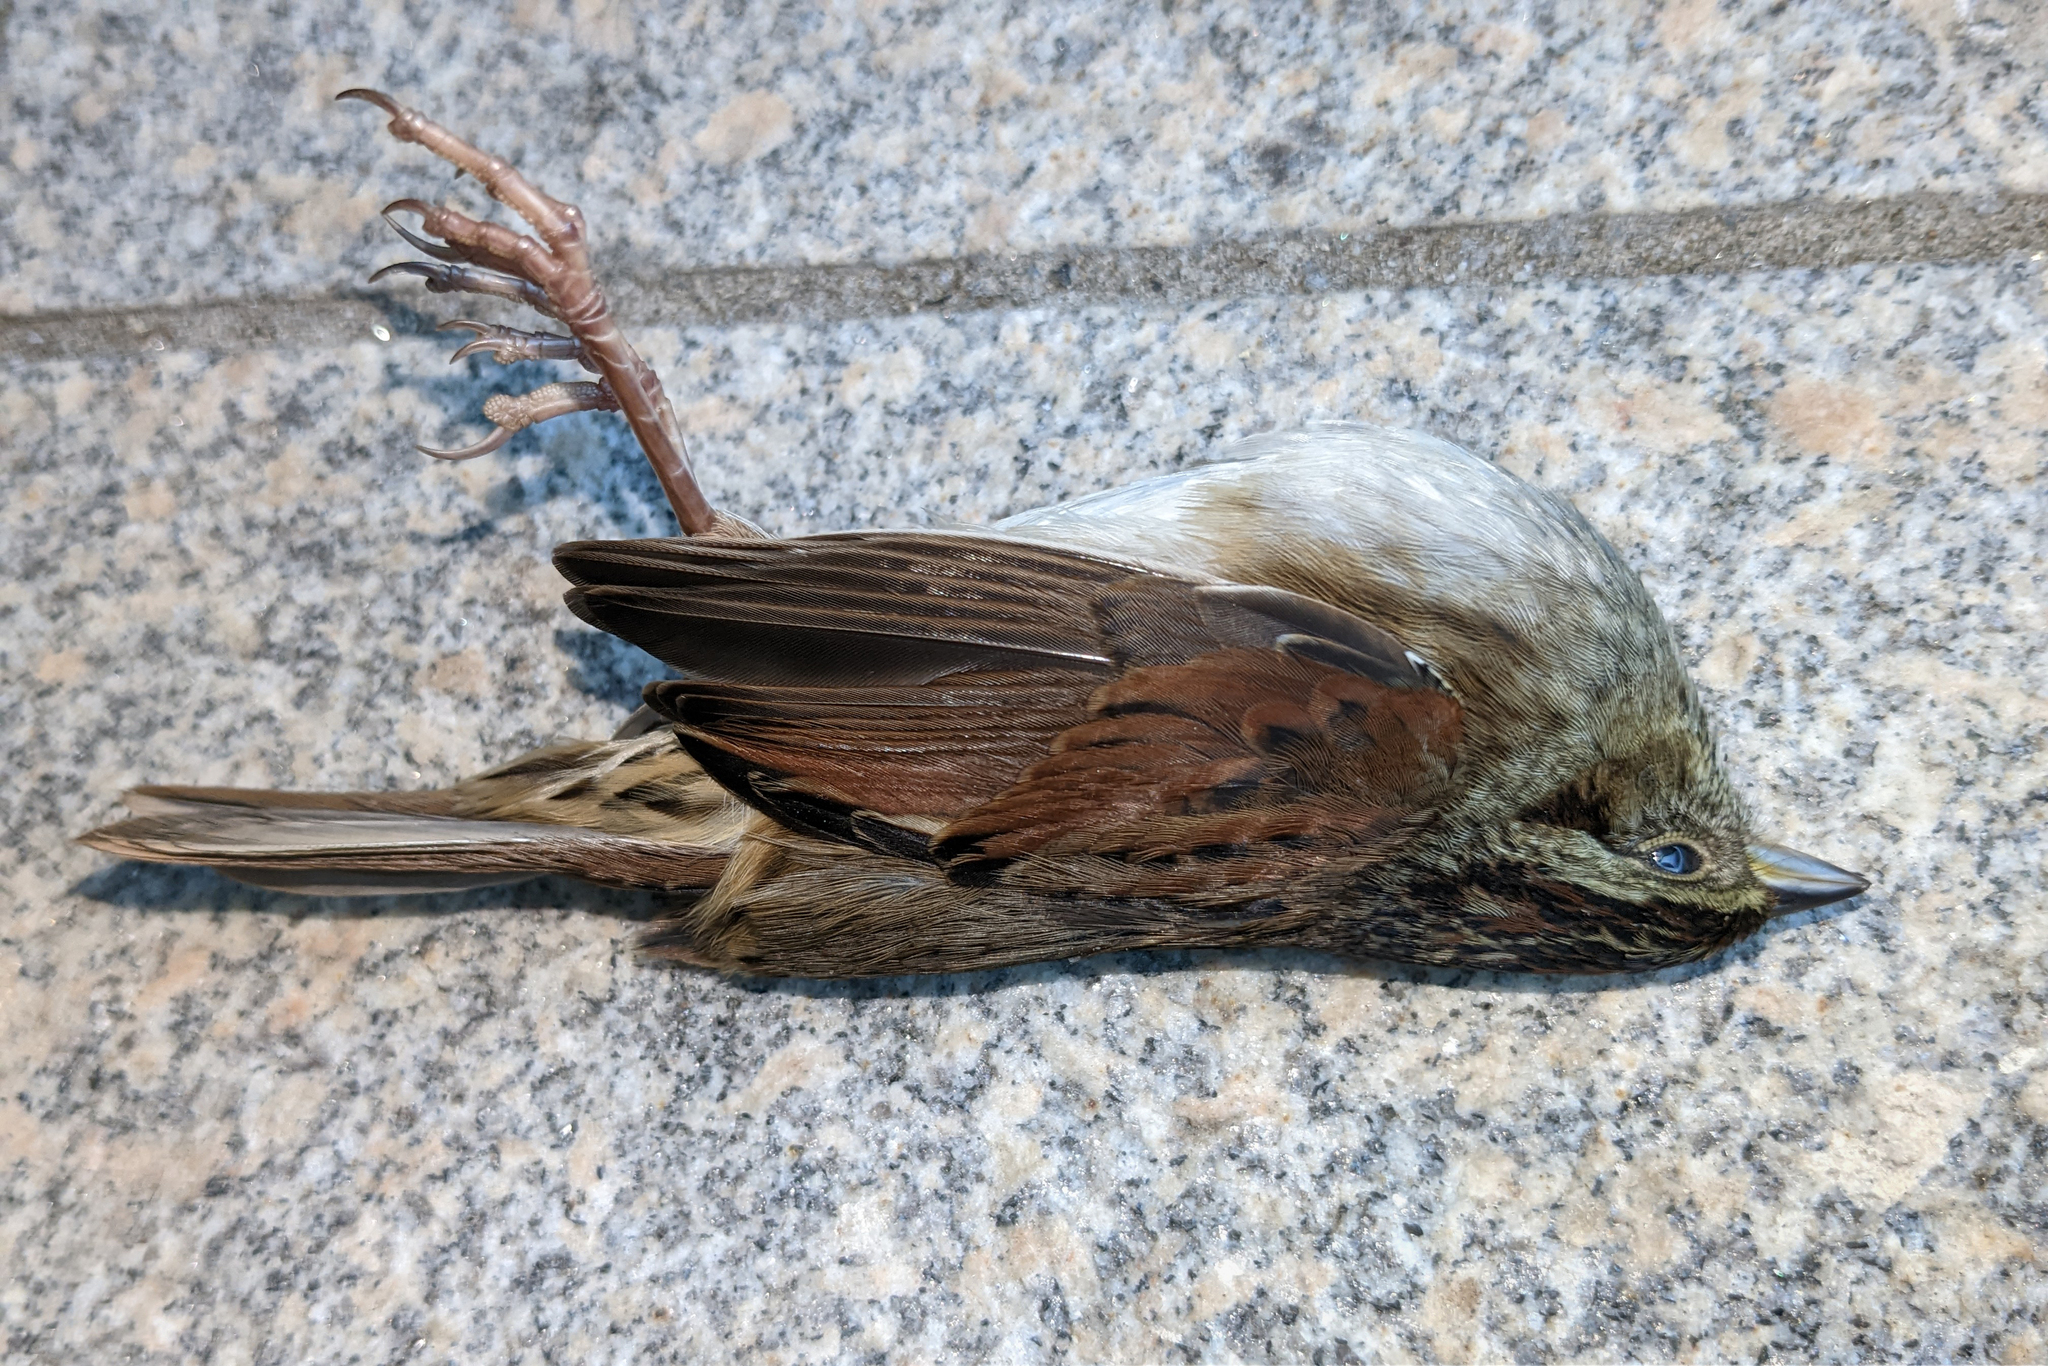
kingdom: Animalia
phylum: Chordata
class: Aves
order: Passeriformes
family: Passerellidae
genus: Melospiza
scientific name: Melospiza georgiana
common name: Swamp sparrow
